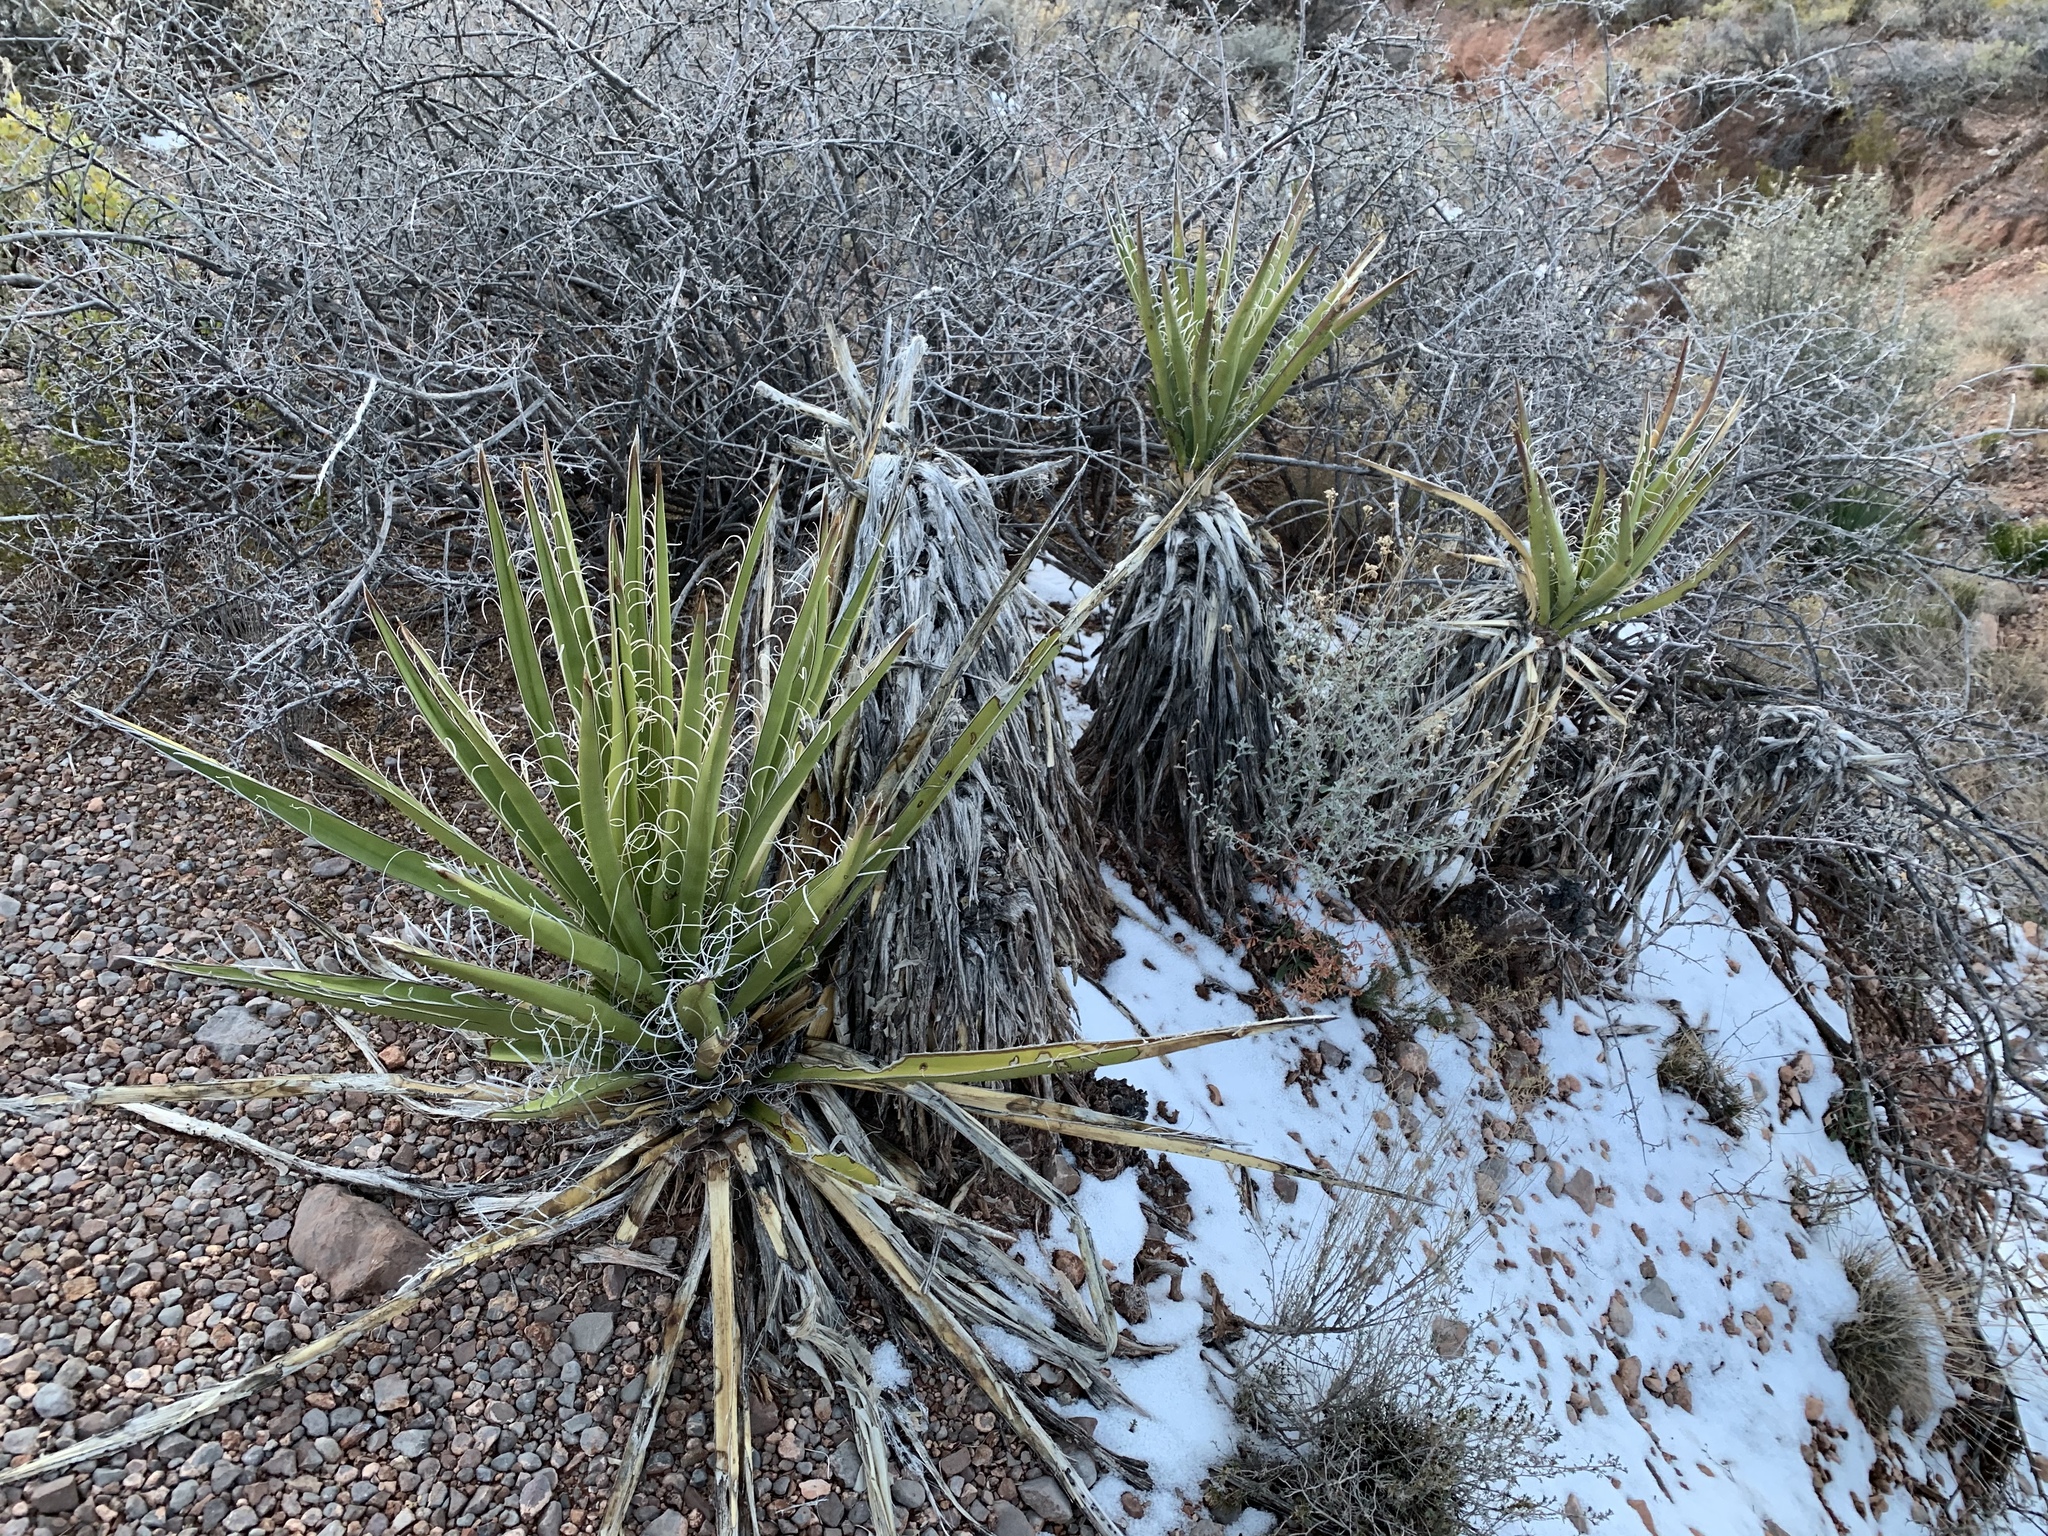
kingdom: Plantae
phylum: Tracheophyta
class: Liliopsida
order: Asparagales
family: Asparagaceae
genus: Yucca
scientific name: Yucca baccata
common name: Banana yucca
